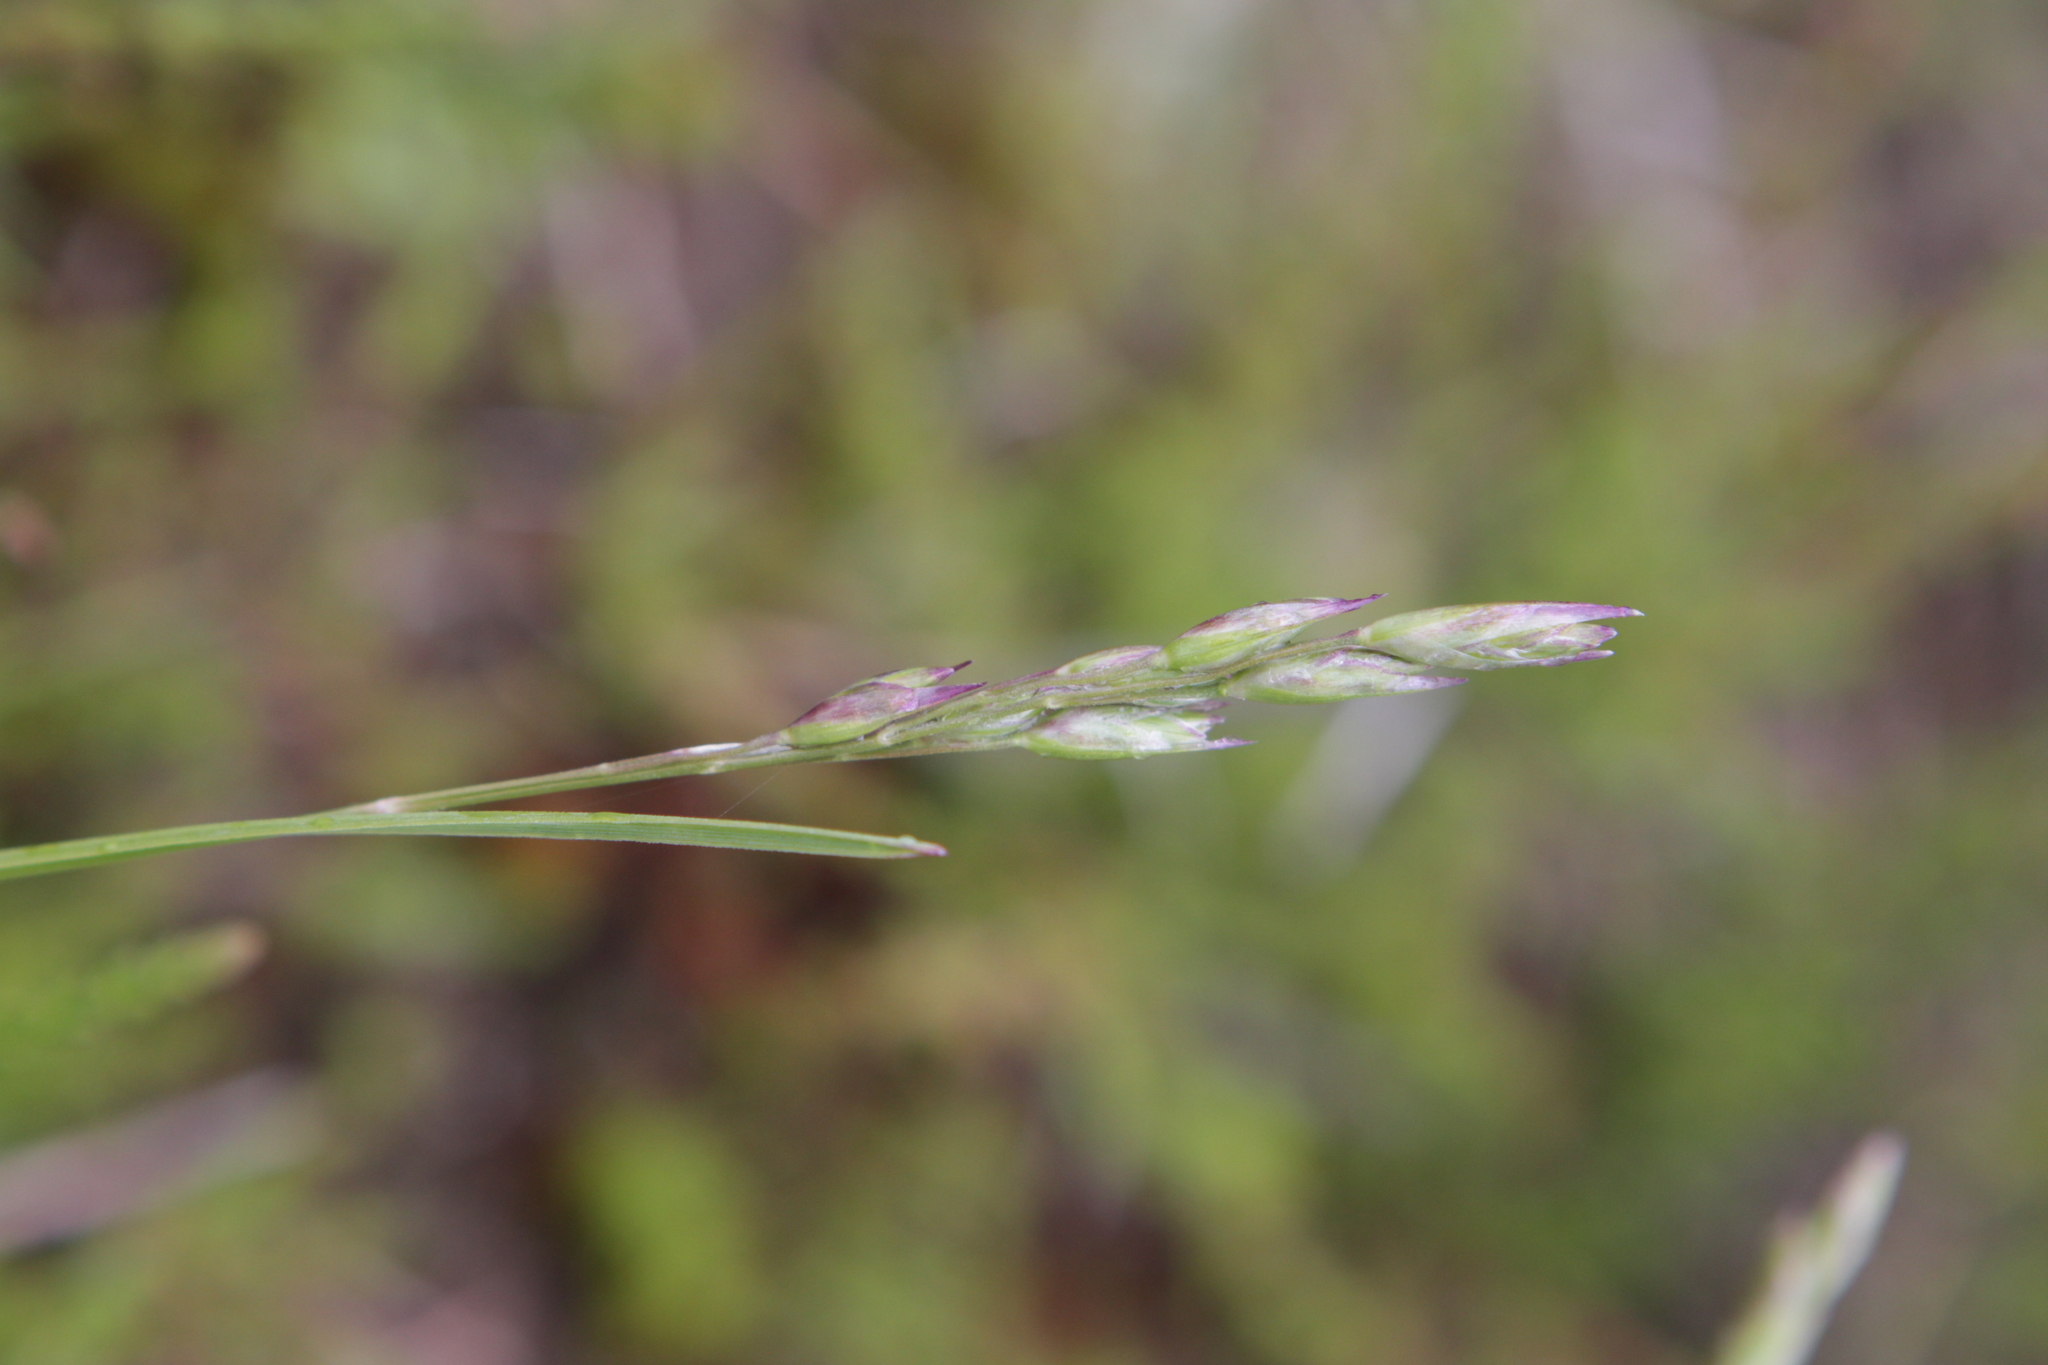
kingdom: Plantae
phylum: Tracheophyta
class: Liliopsida
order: Poales
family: Poaceae
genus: Danthonia
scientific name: Danthonia decumbens
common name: Common heathgrass
